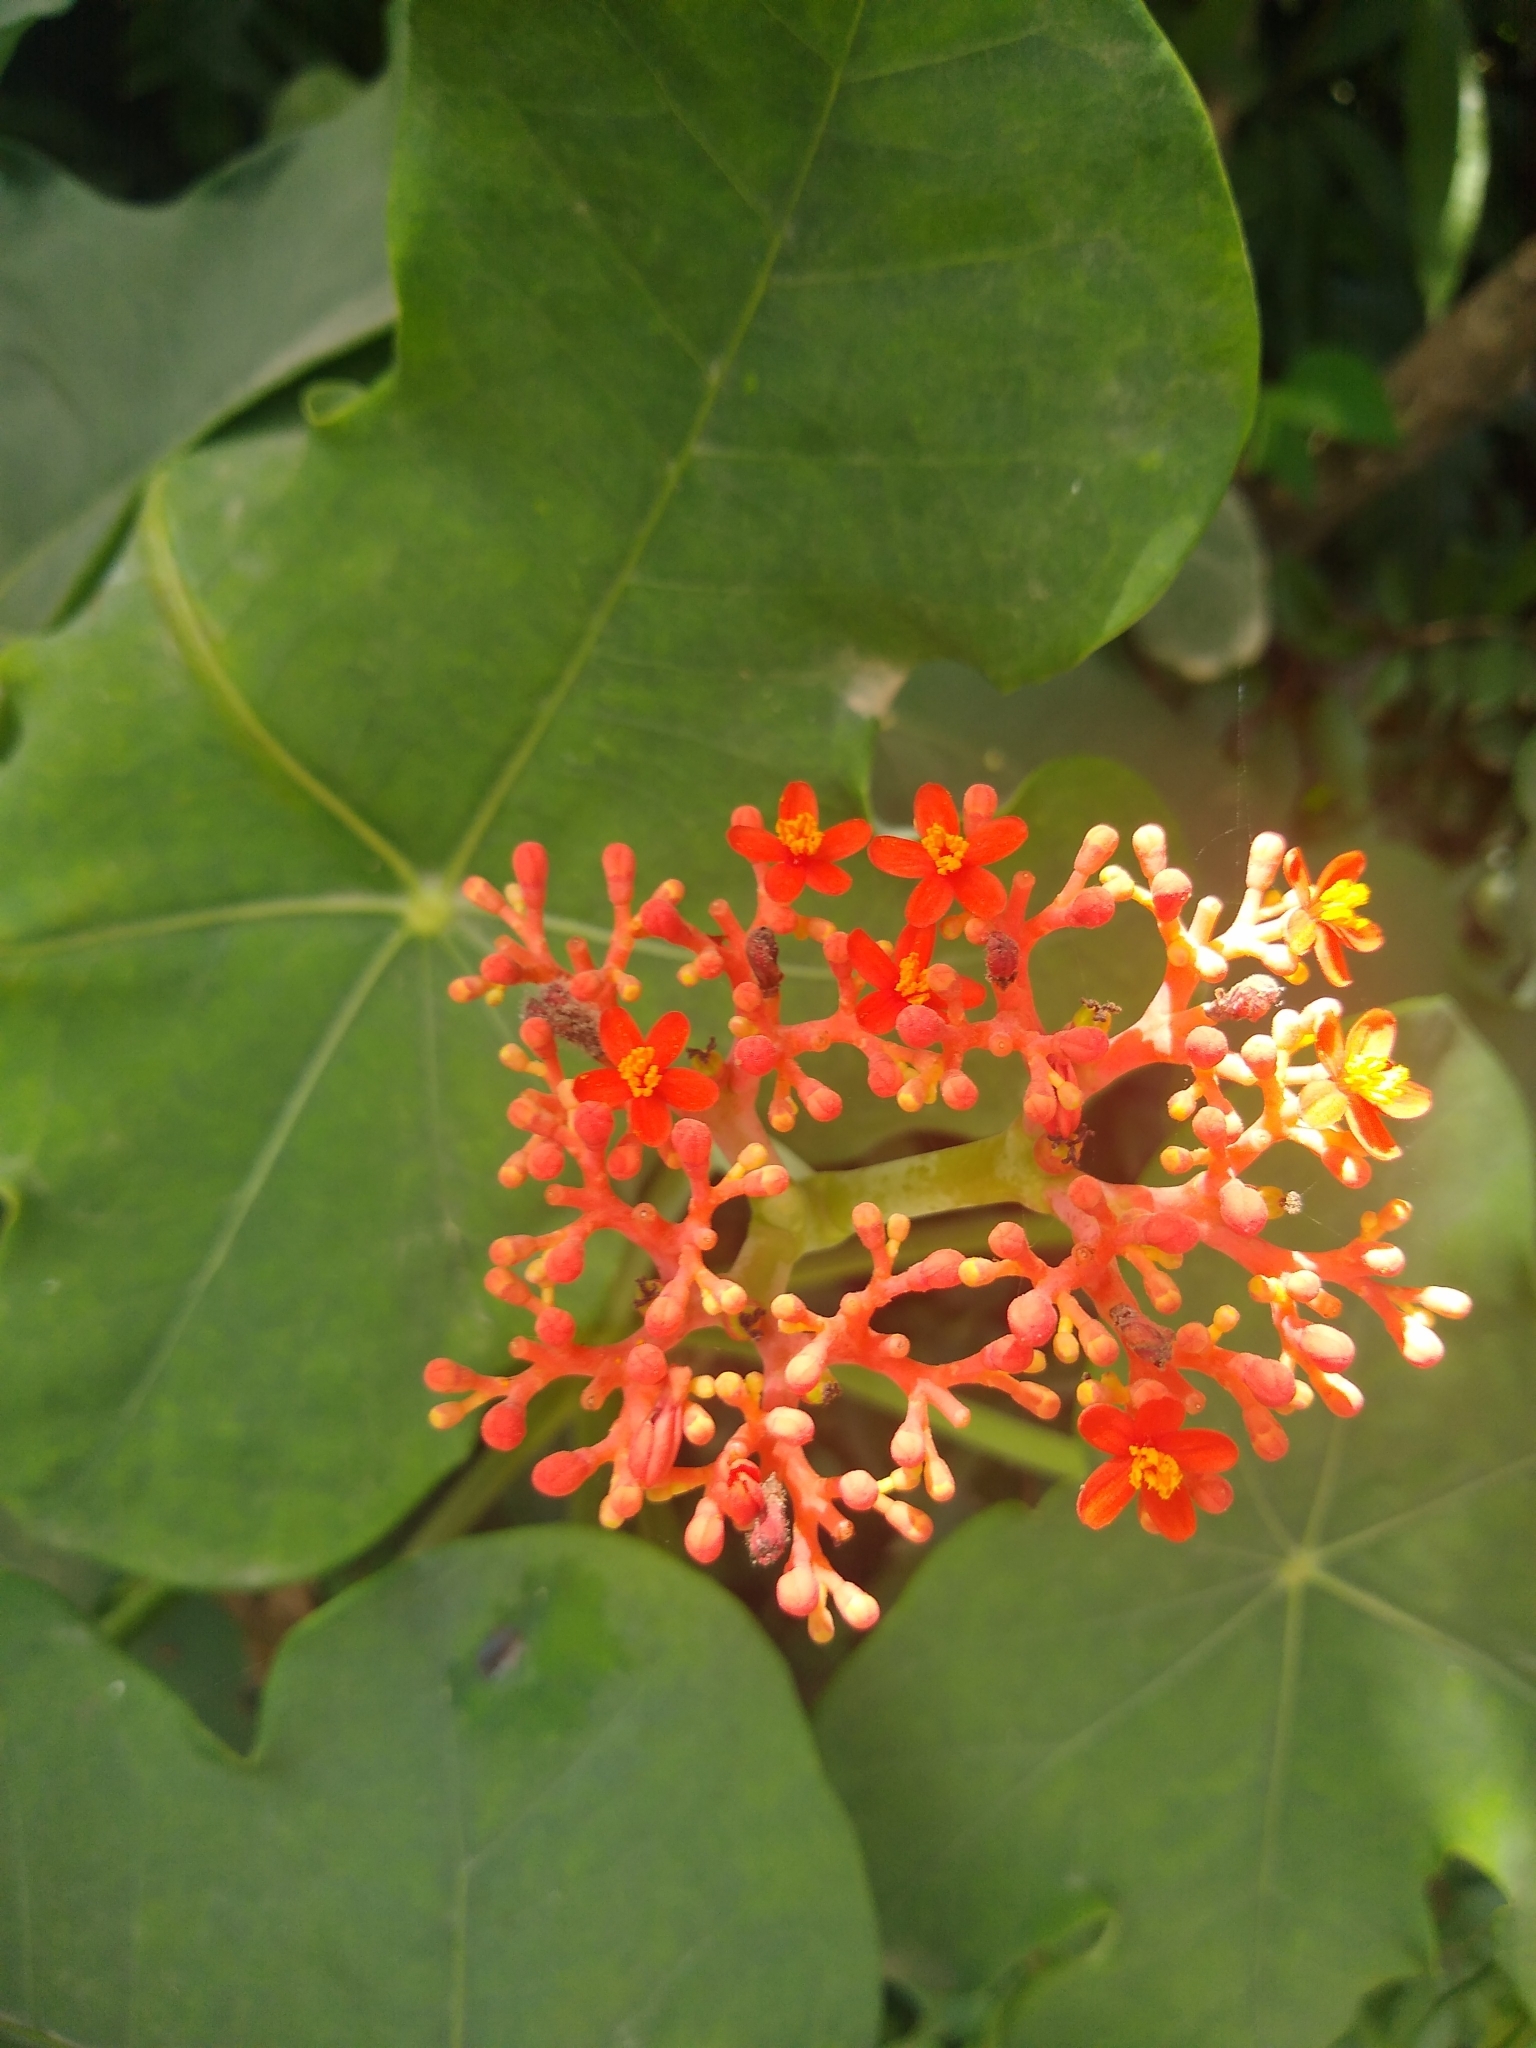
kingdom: Plantae
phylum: Tracheophyta
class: Magnoliopsida
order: Malpighiales
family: Euphorbiaceae
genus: Jatropha
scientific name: Jatropha podagrica
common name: Gout stalk
